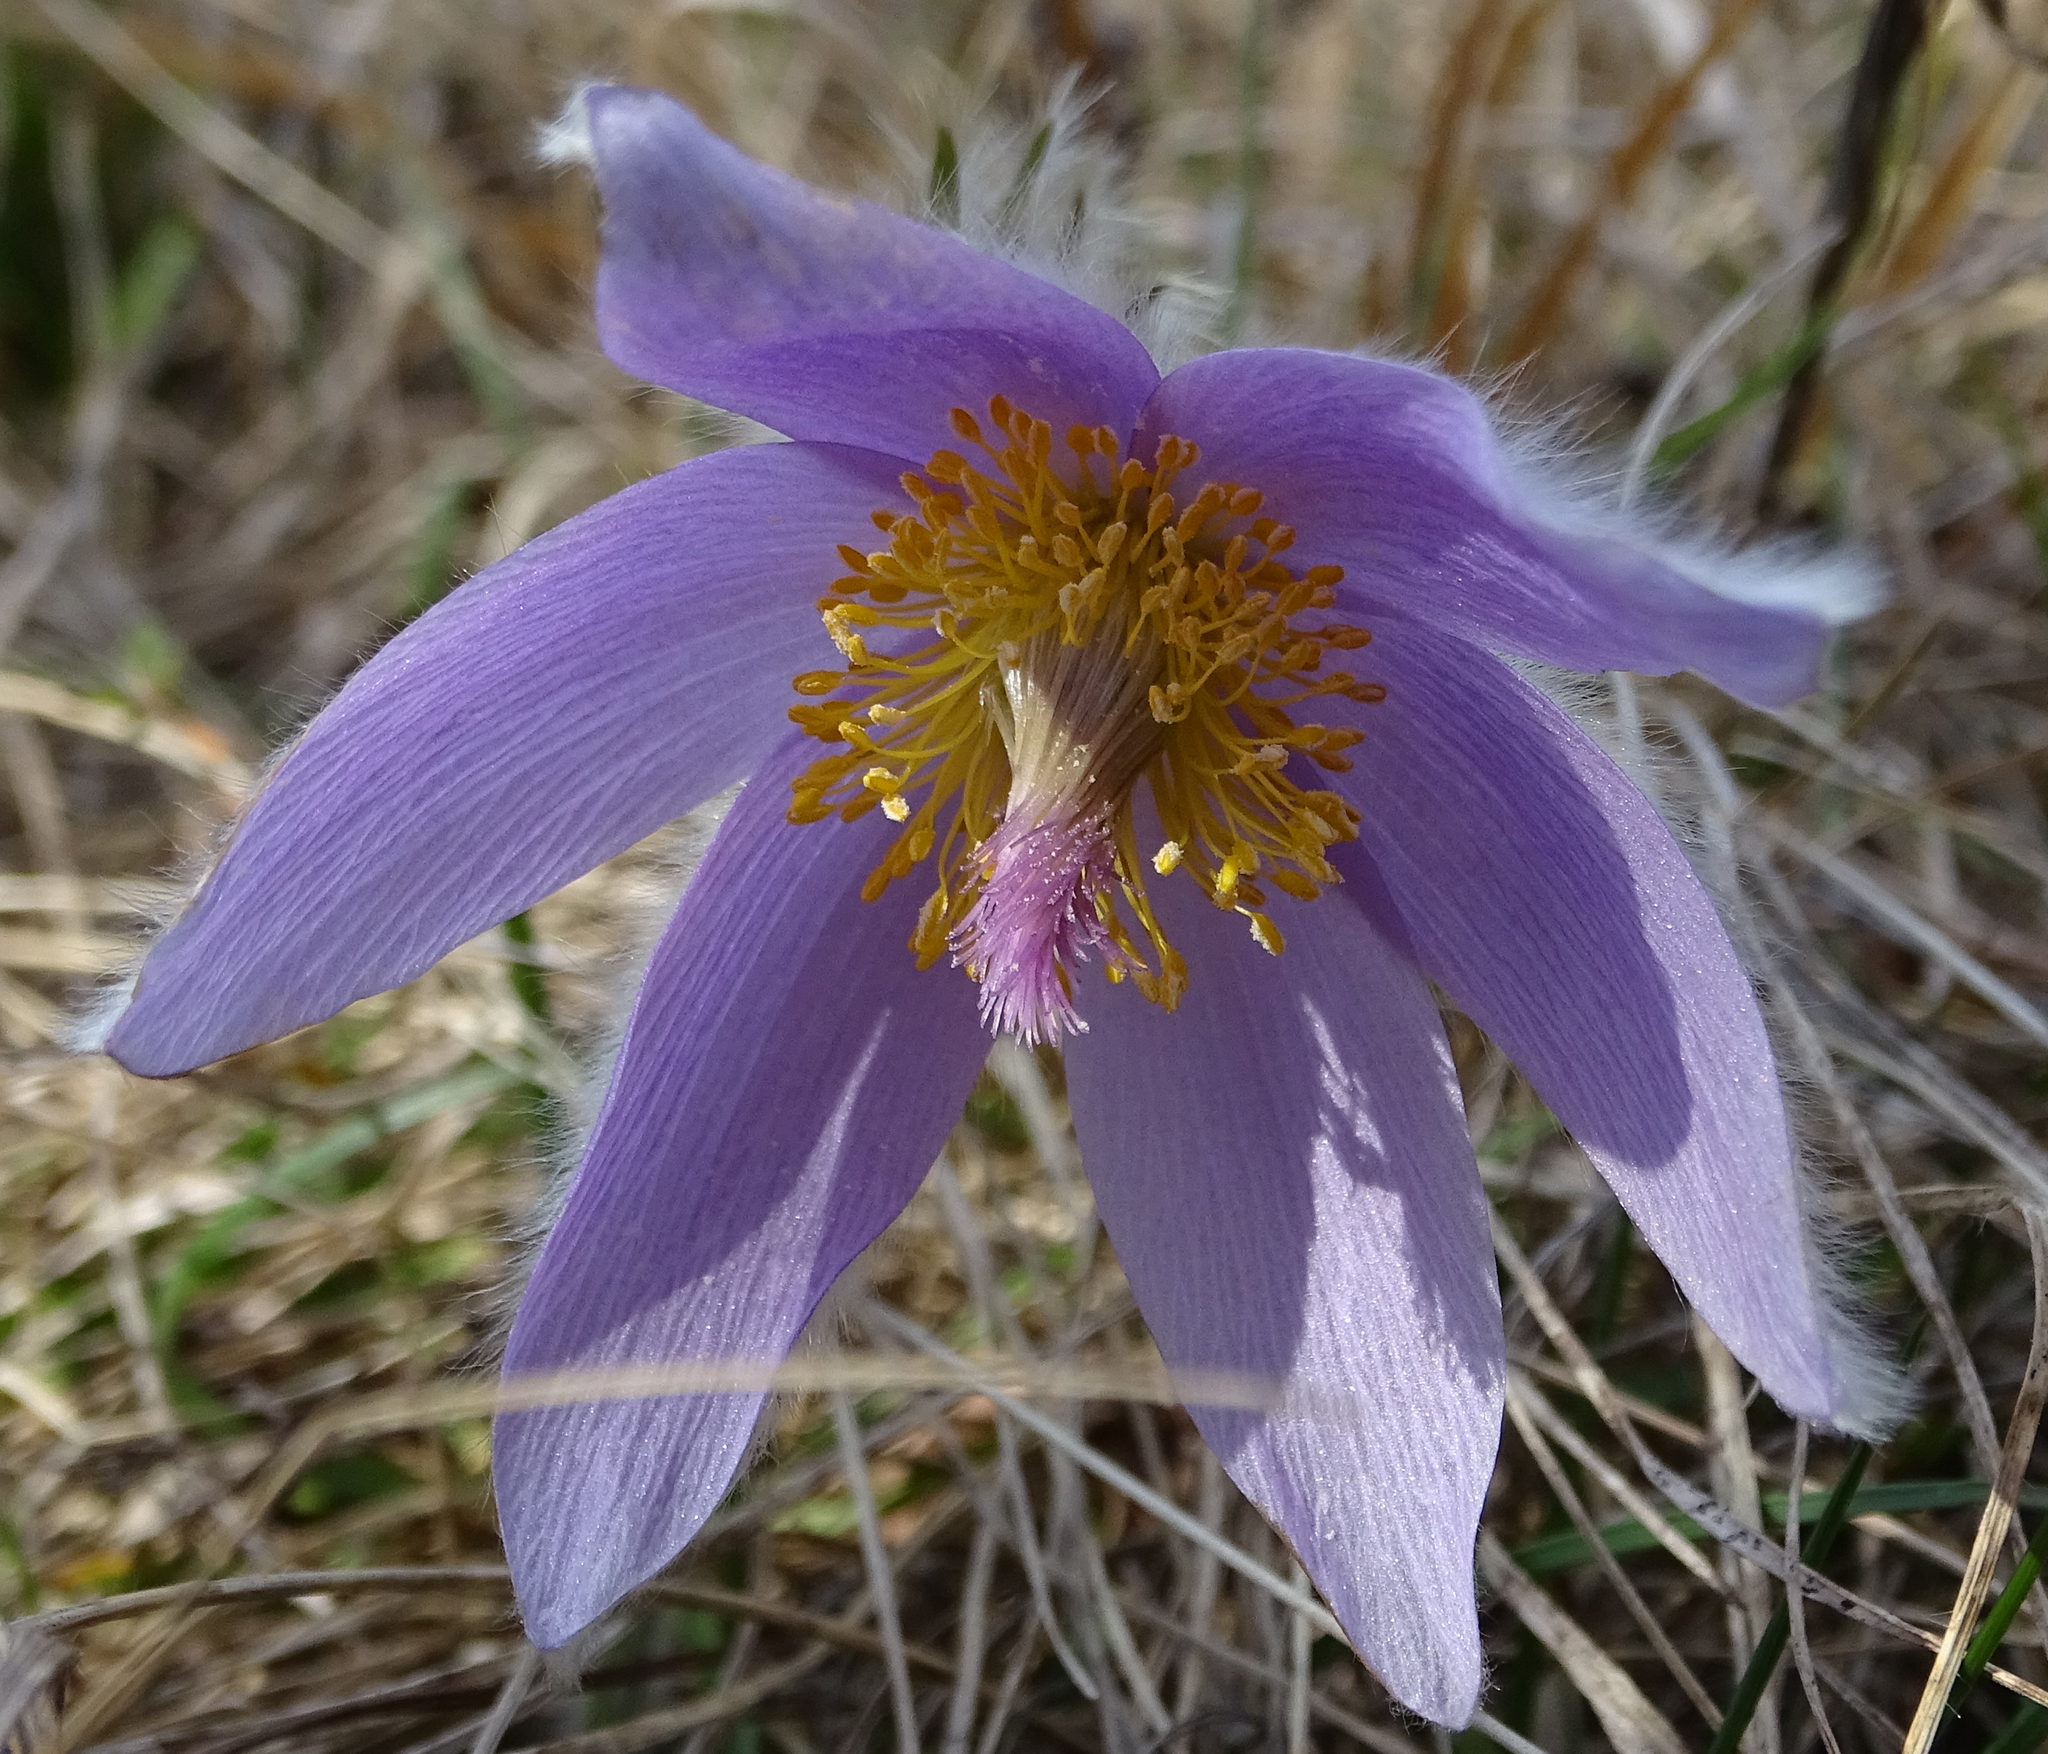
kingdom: Plantae
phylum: Tracheophyta
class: Magnoliopsida
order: Ranunculales
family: Ranunculaceae
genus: Pulsatilla
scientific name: Pulsatilla grandis
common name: Greater pasque flower
